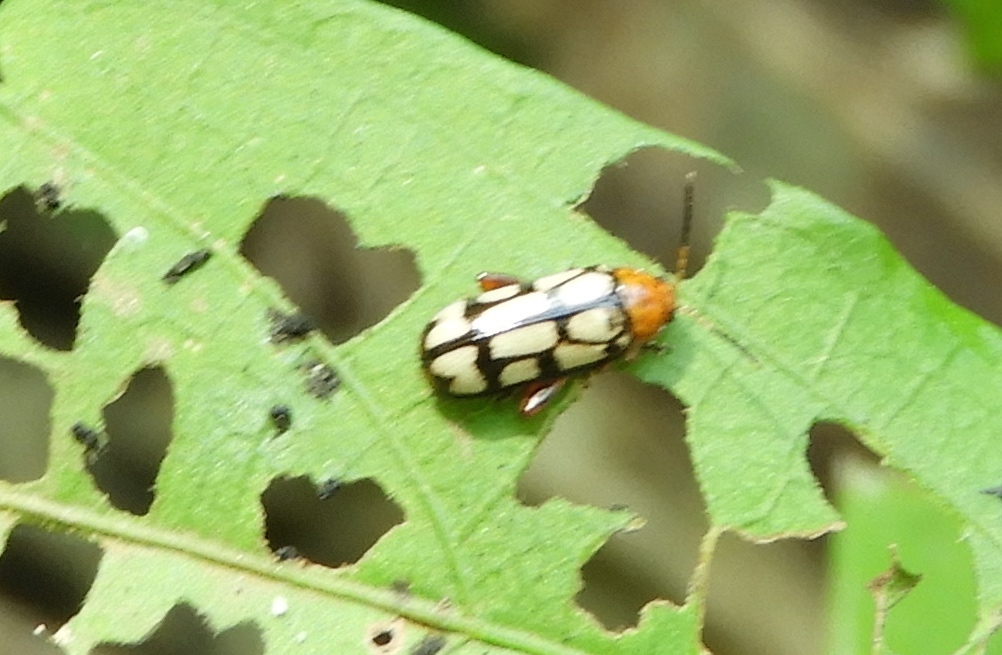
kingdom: Animalia
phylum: Arthropoda
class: Insecta
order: Coleoptera
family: Chrysomelidae
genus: Disonycha
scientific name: Disonycha
